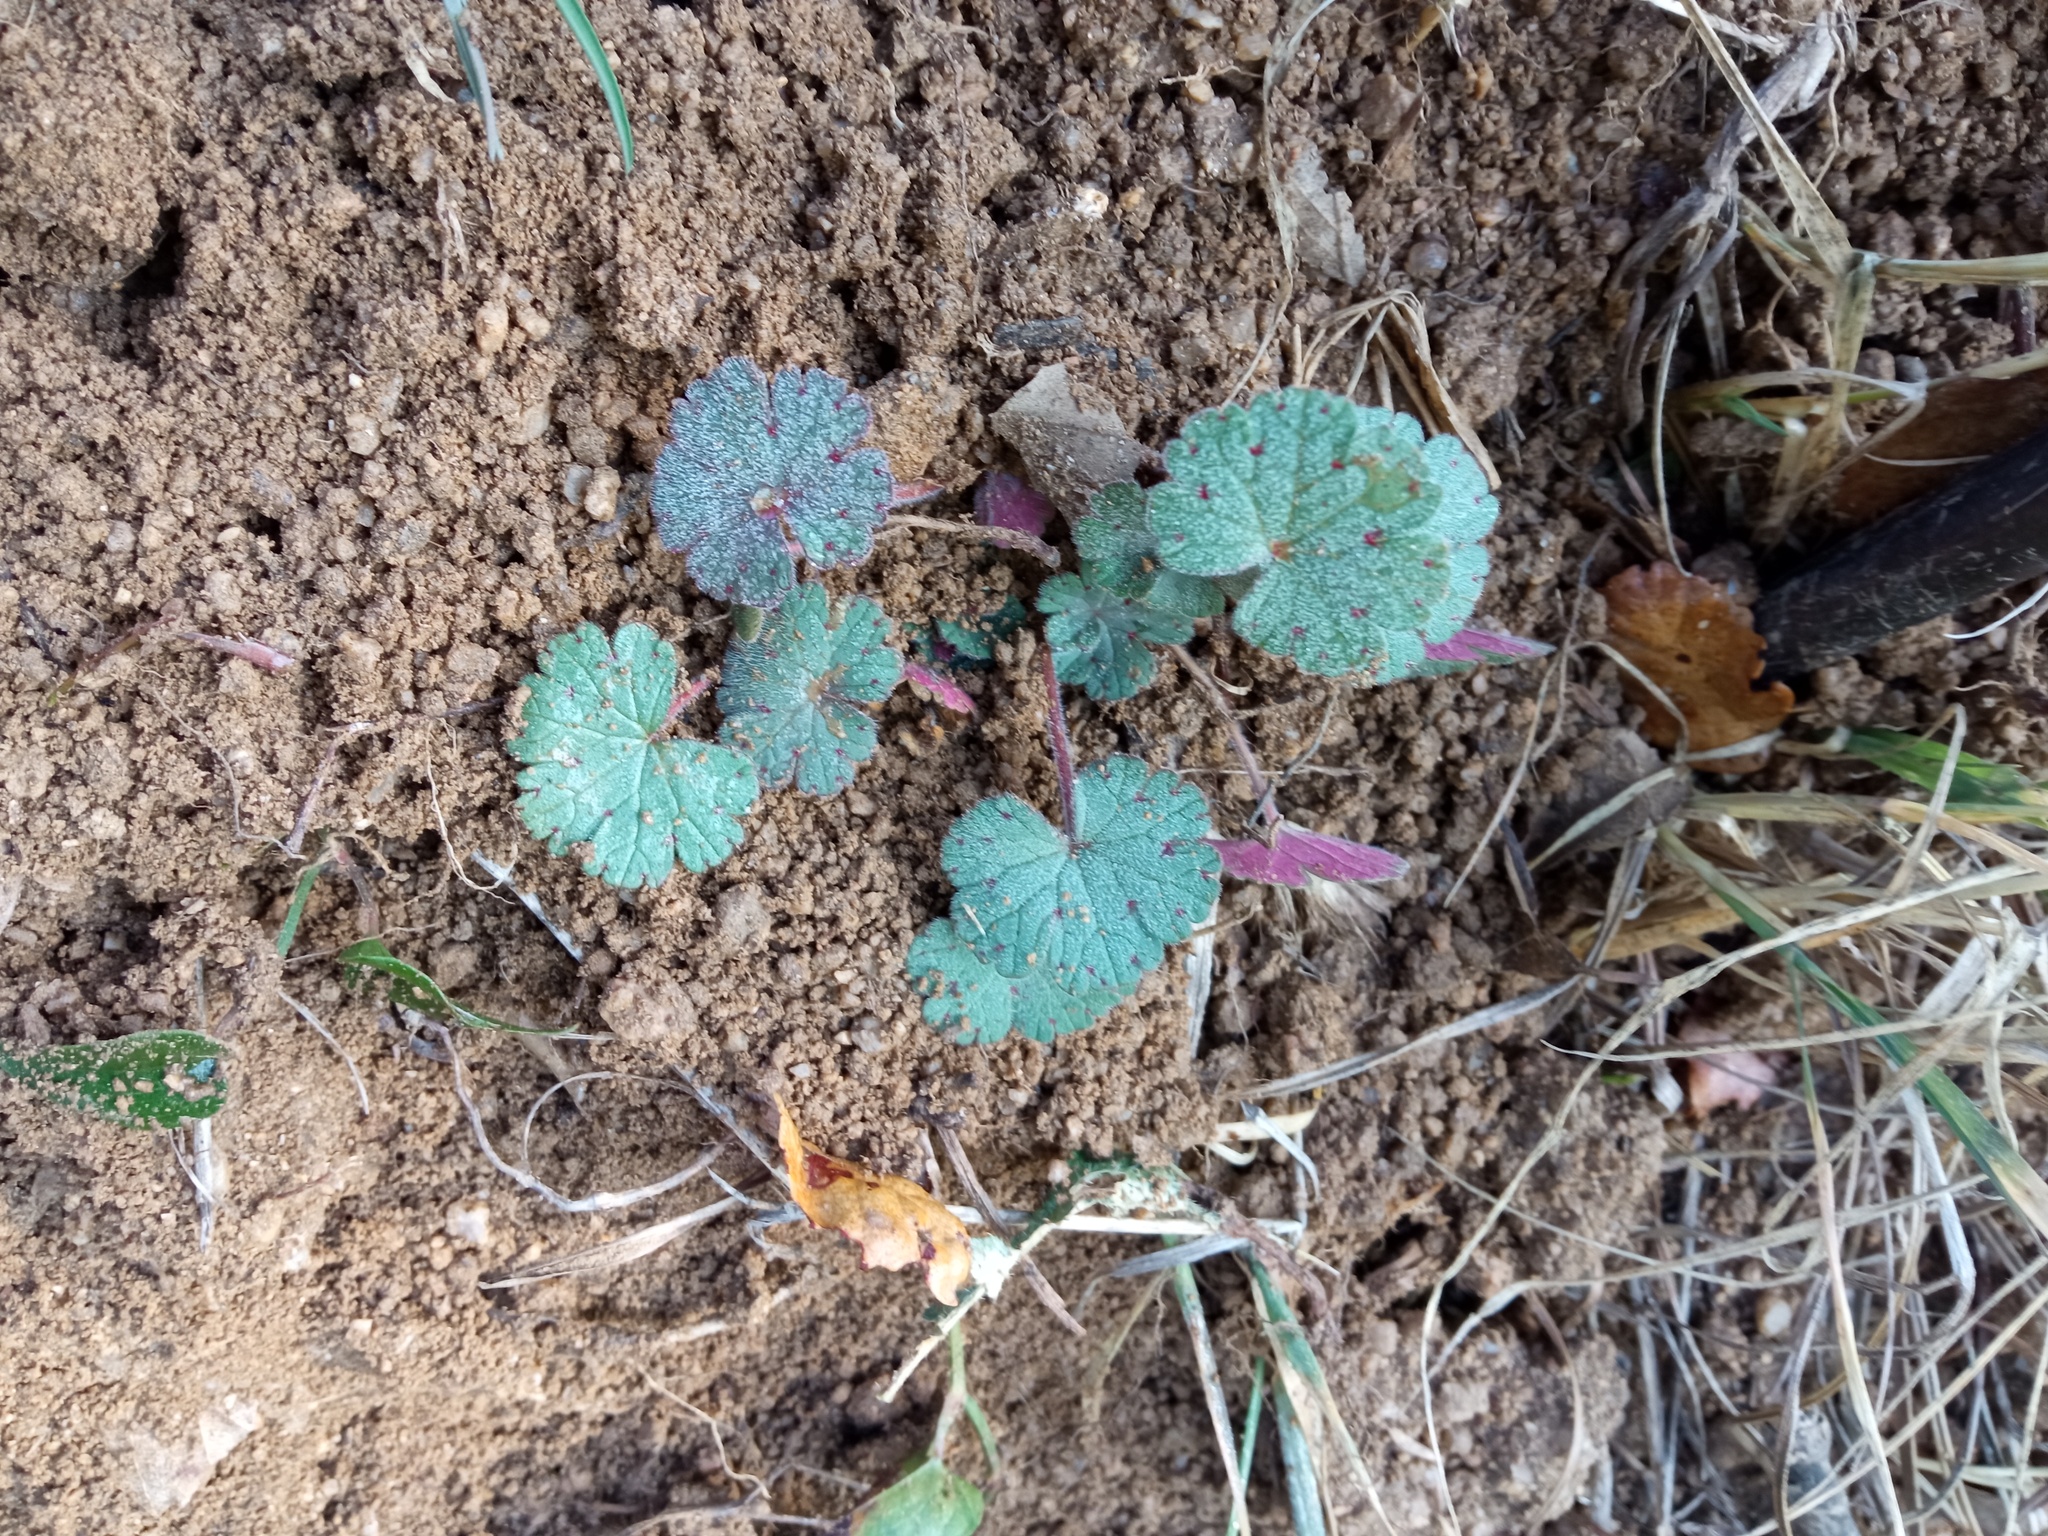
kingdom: Plantae
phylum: Tracheophyta
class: Magnoliopsida
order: Geraniales
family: Geraniaceae
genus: Geranium
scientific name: Geranium rotundifolium
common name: Round-leaved crane's-bill
